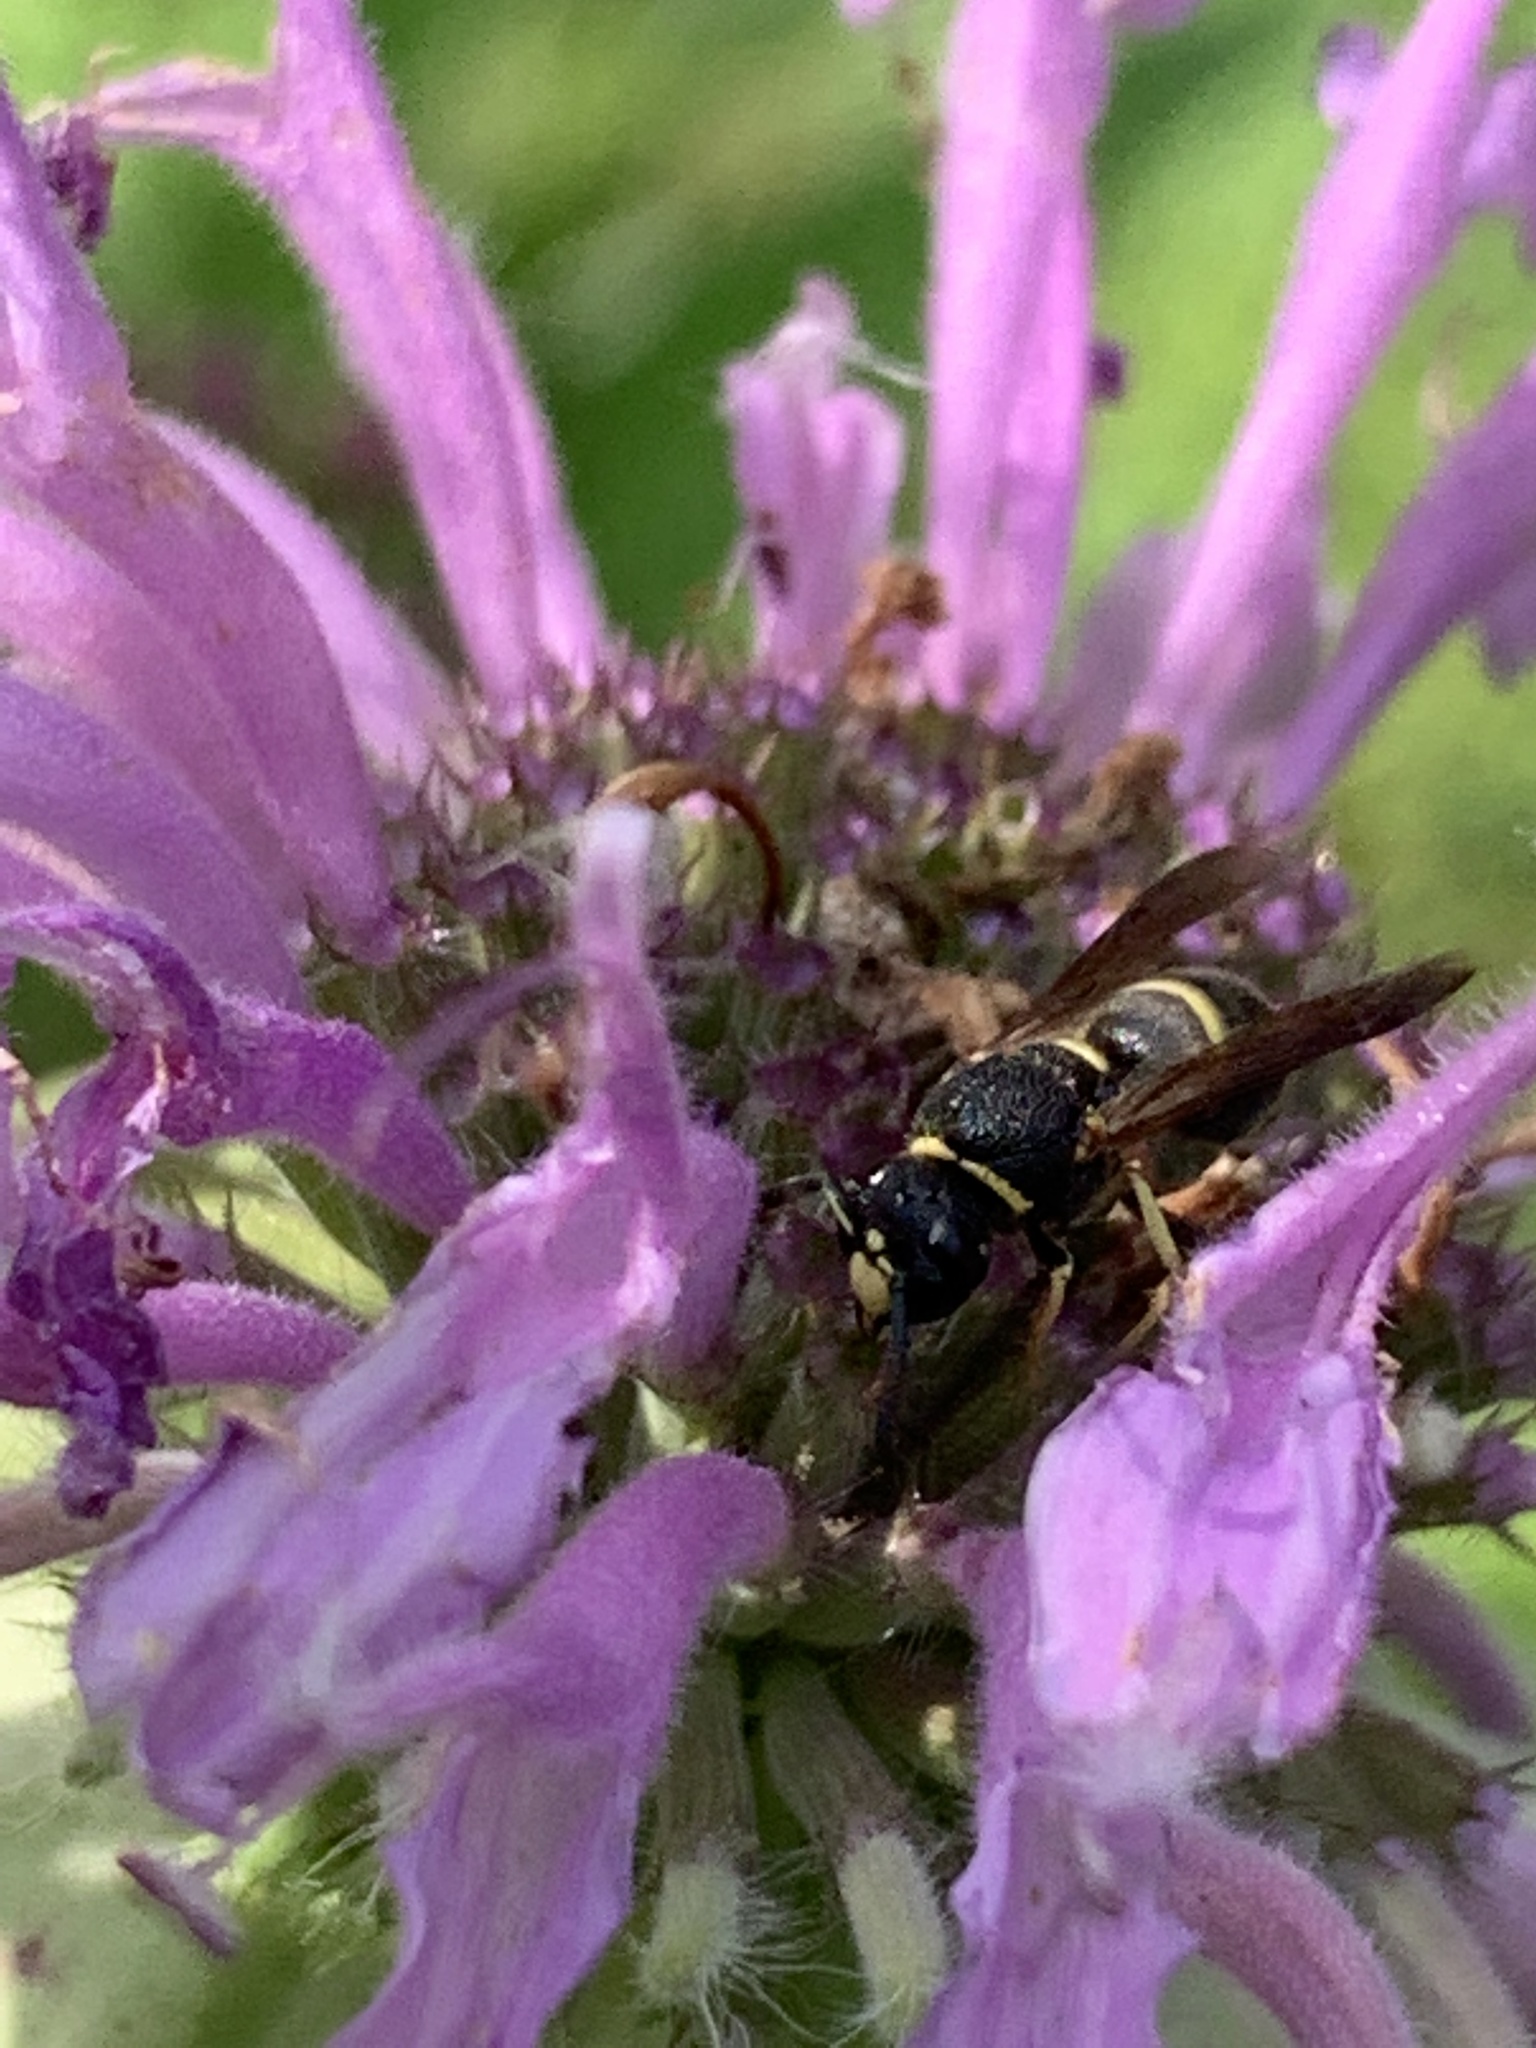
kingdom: Animalia
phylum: Arthropoda
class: Insecta
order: Hymenoptera
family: Eumenidae
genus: Euodynerus
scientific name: Euodynerus foraminatus
